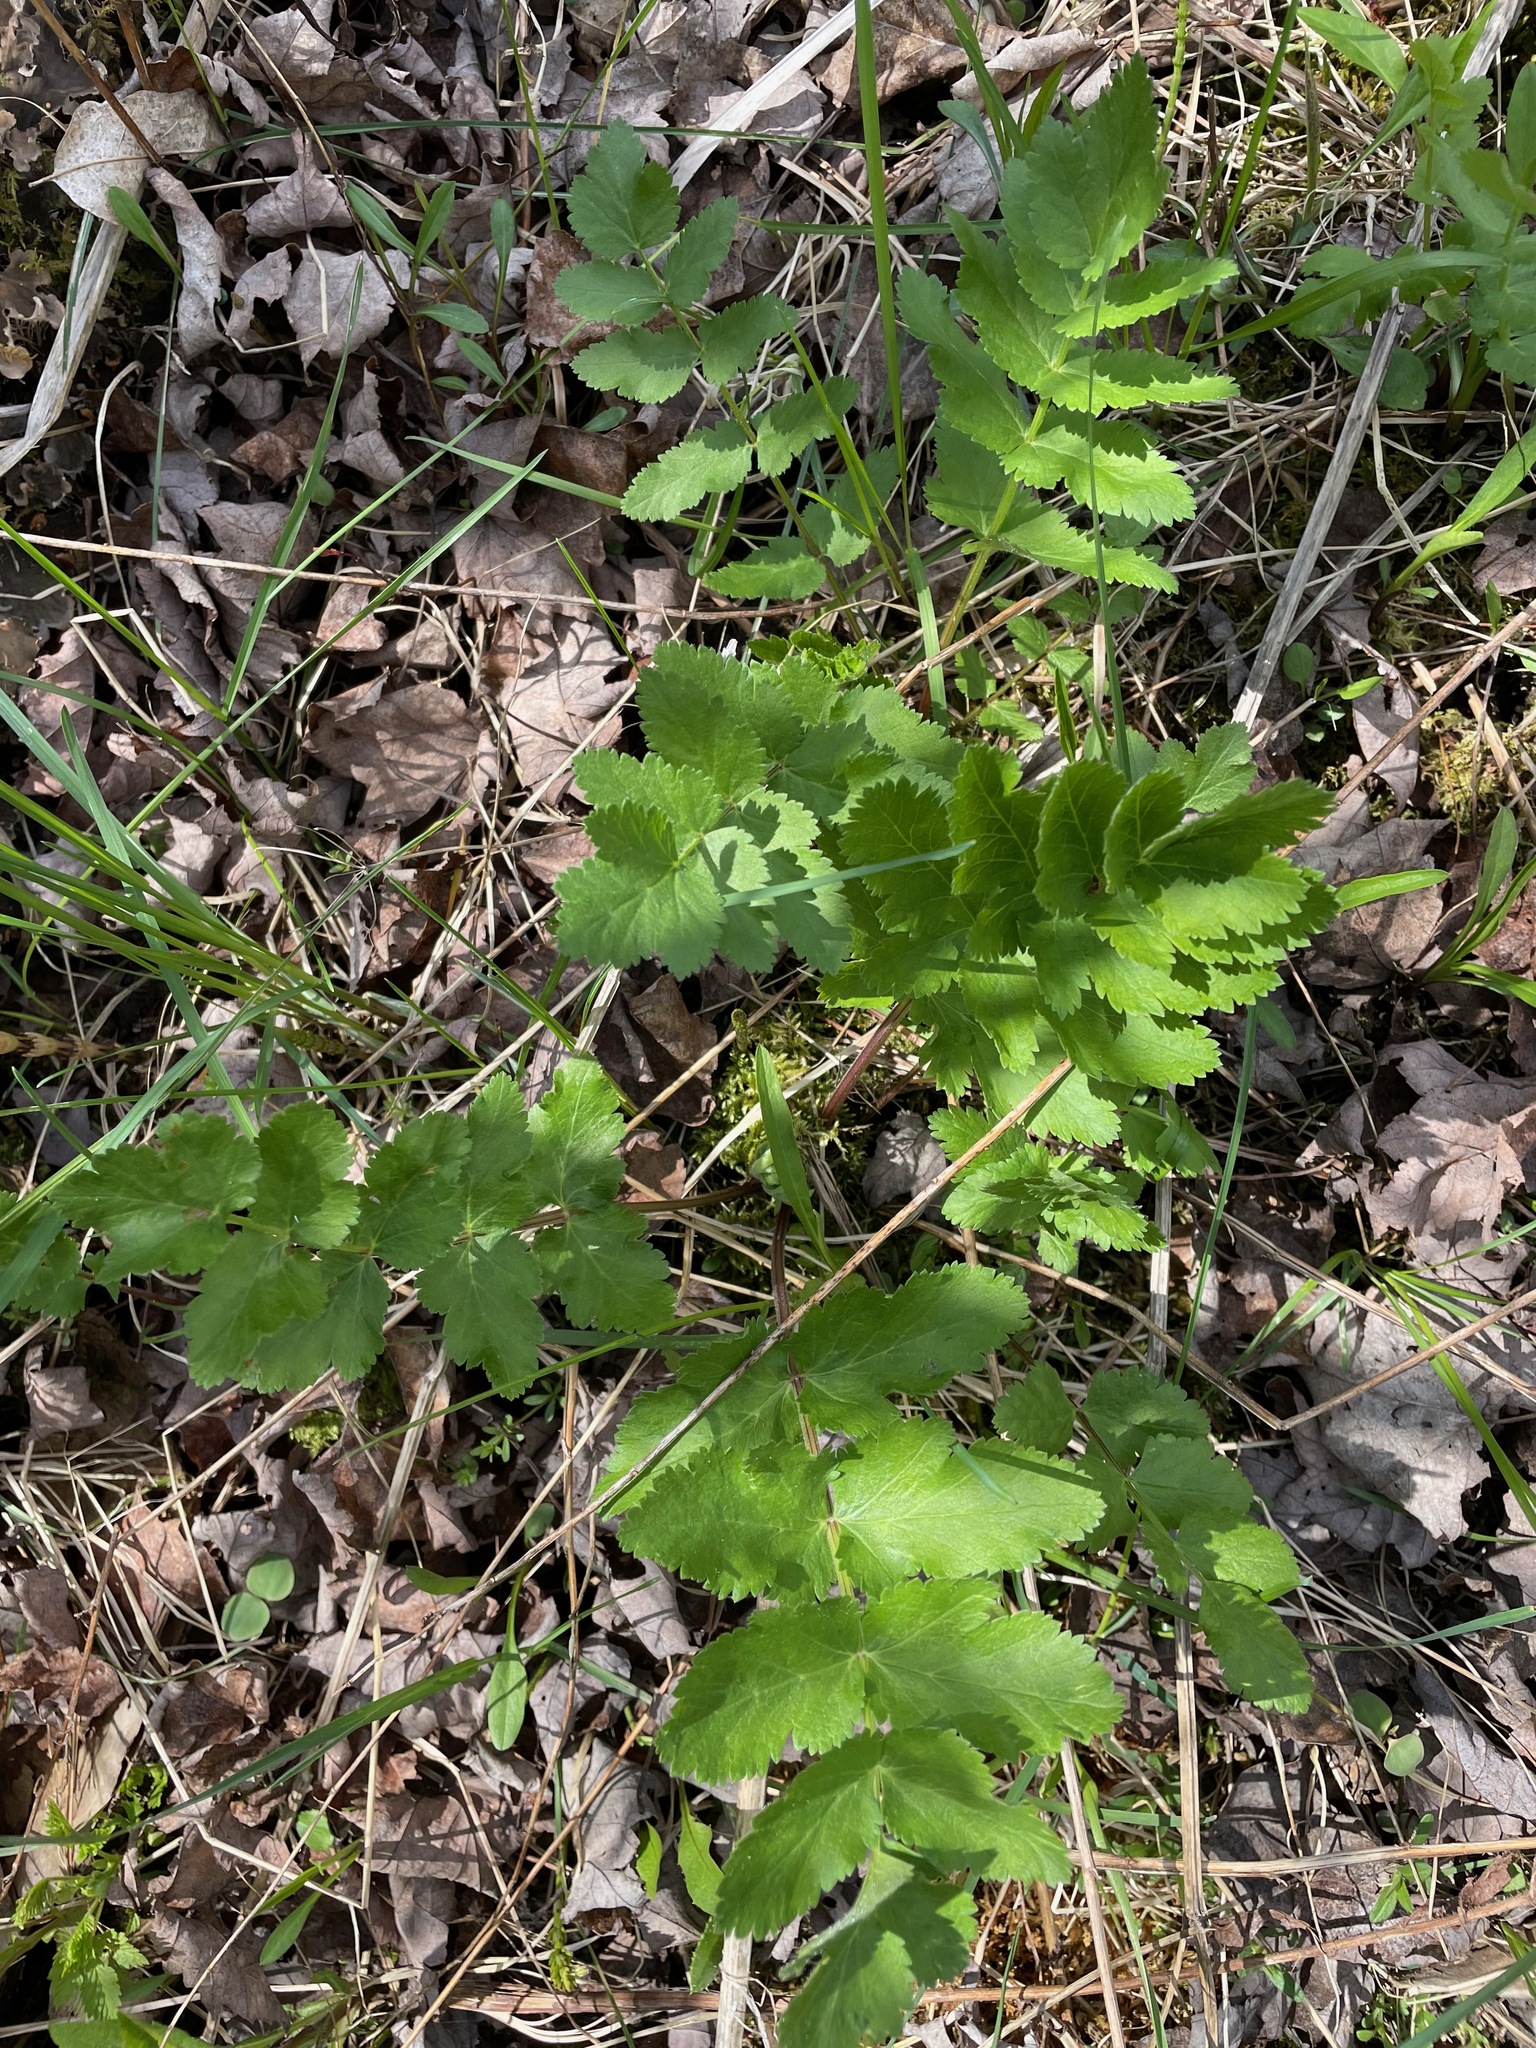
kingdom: Plantae
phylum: Tracheophyta
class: Magnoliopsida
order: Apiales
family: Apiaceae
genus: Pastinaca
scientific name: Pastinaca sativa
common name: Wild parsnip
